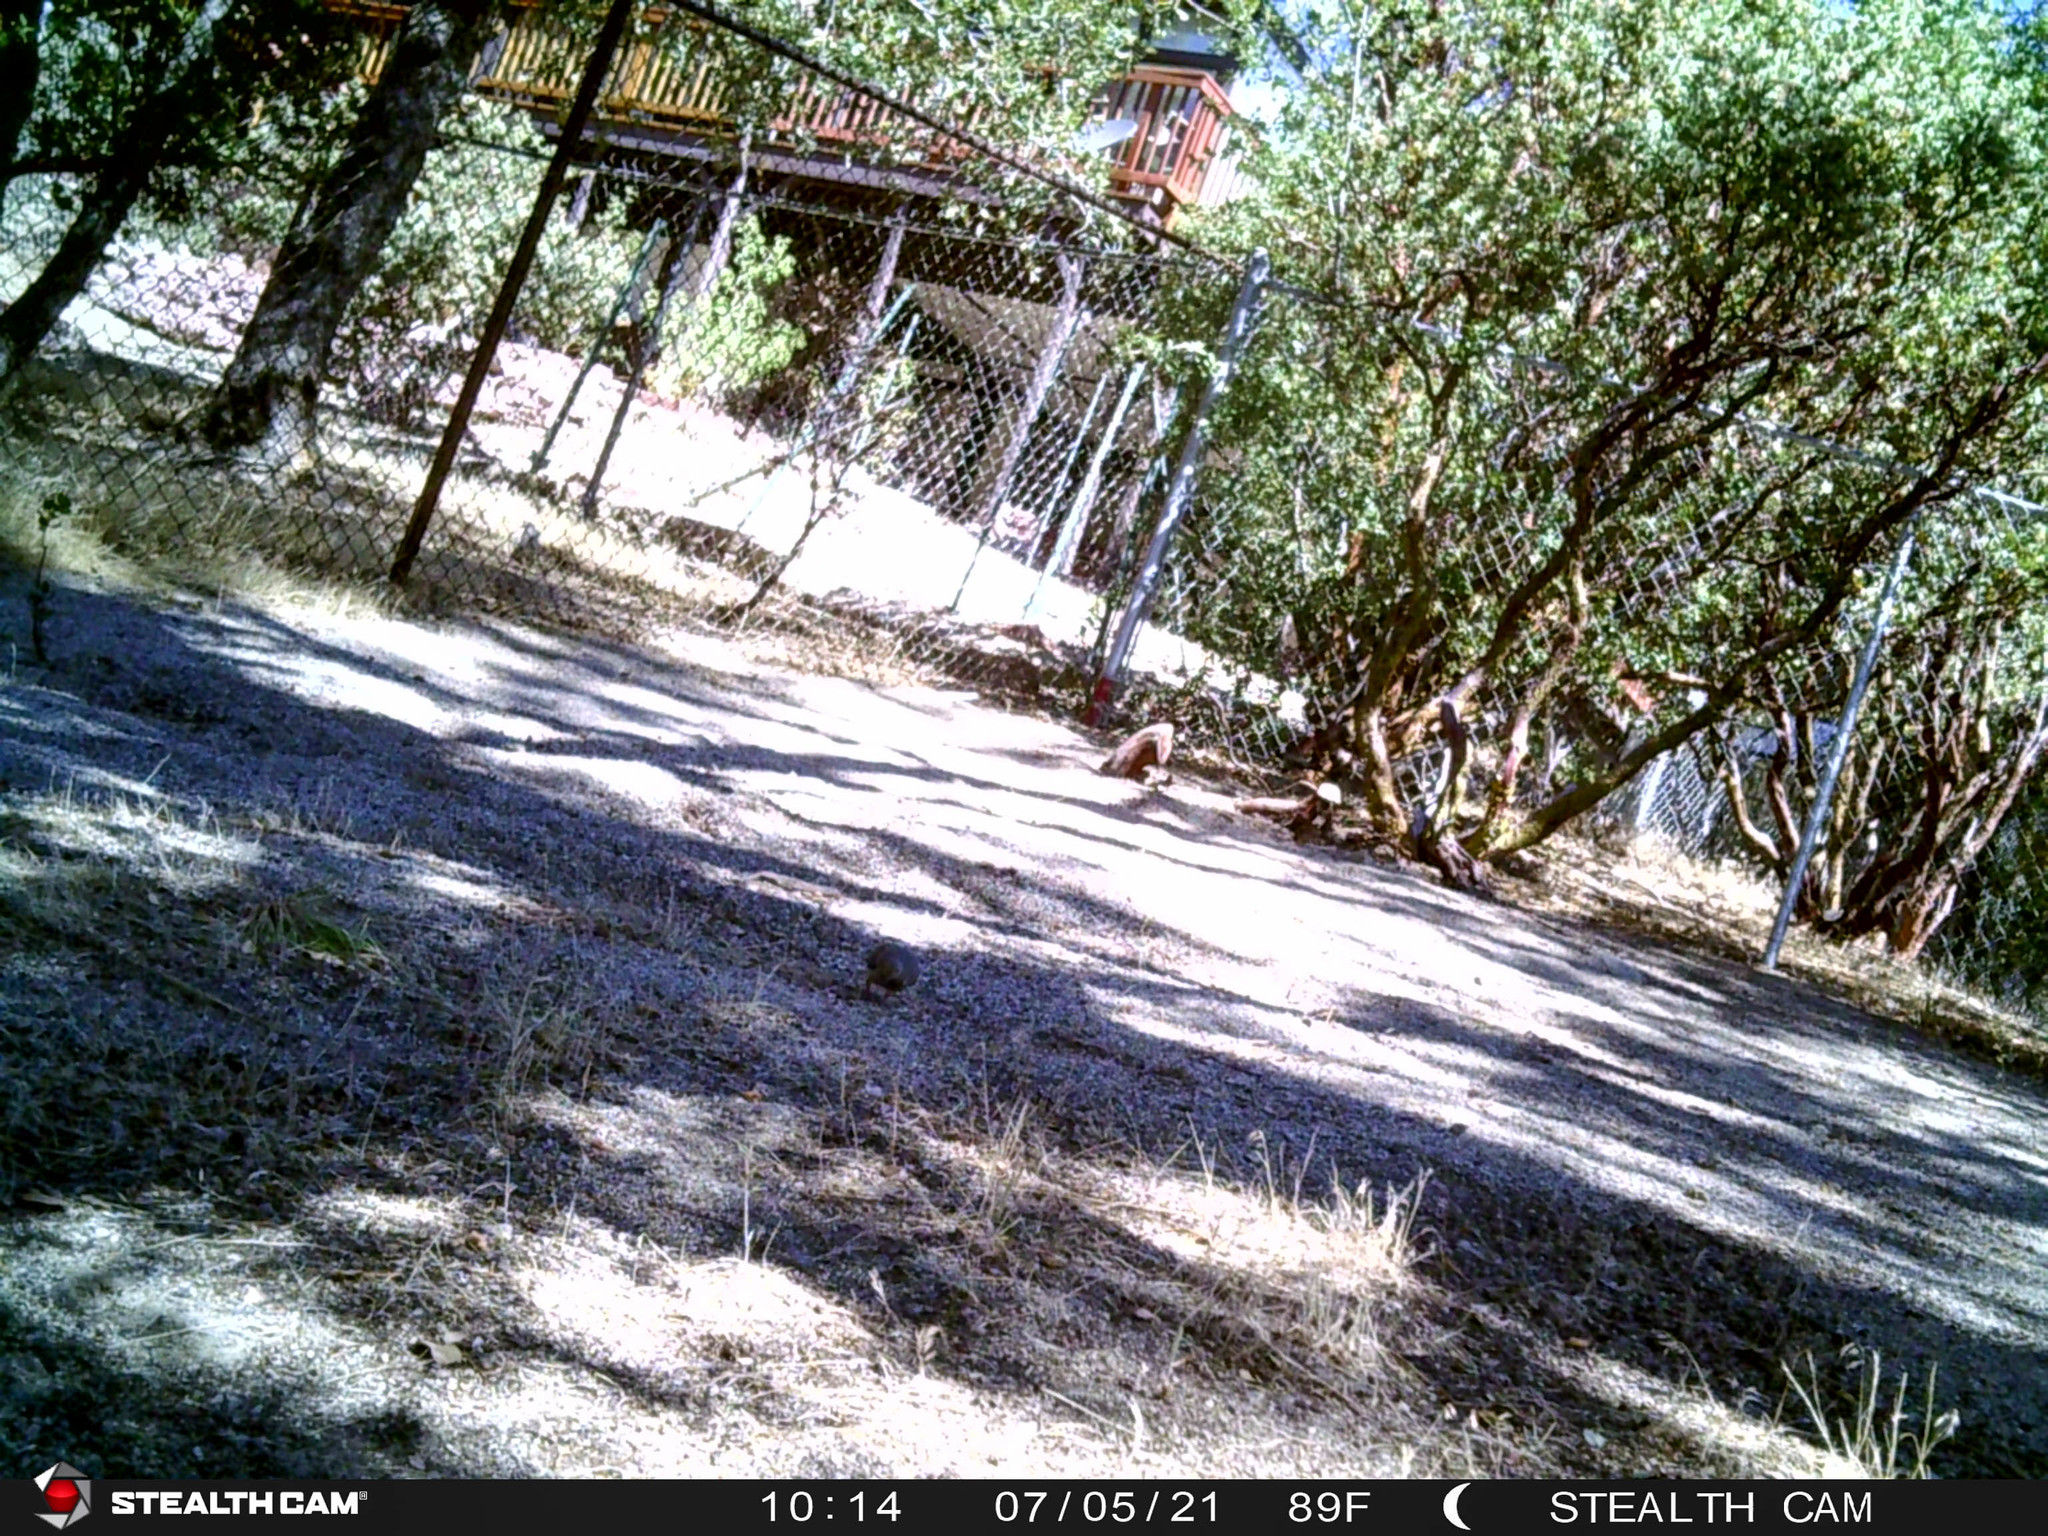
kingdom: Animalia
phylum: Chordata
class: Aves
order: Columbiformes
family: Columbidae
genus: Zenaida
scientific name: Zenaida macroura
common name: Mourning dove
